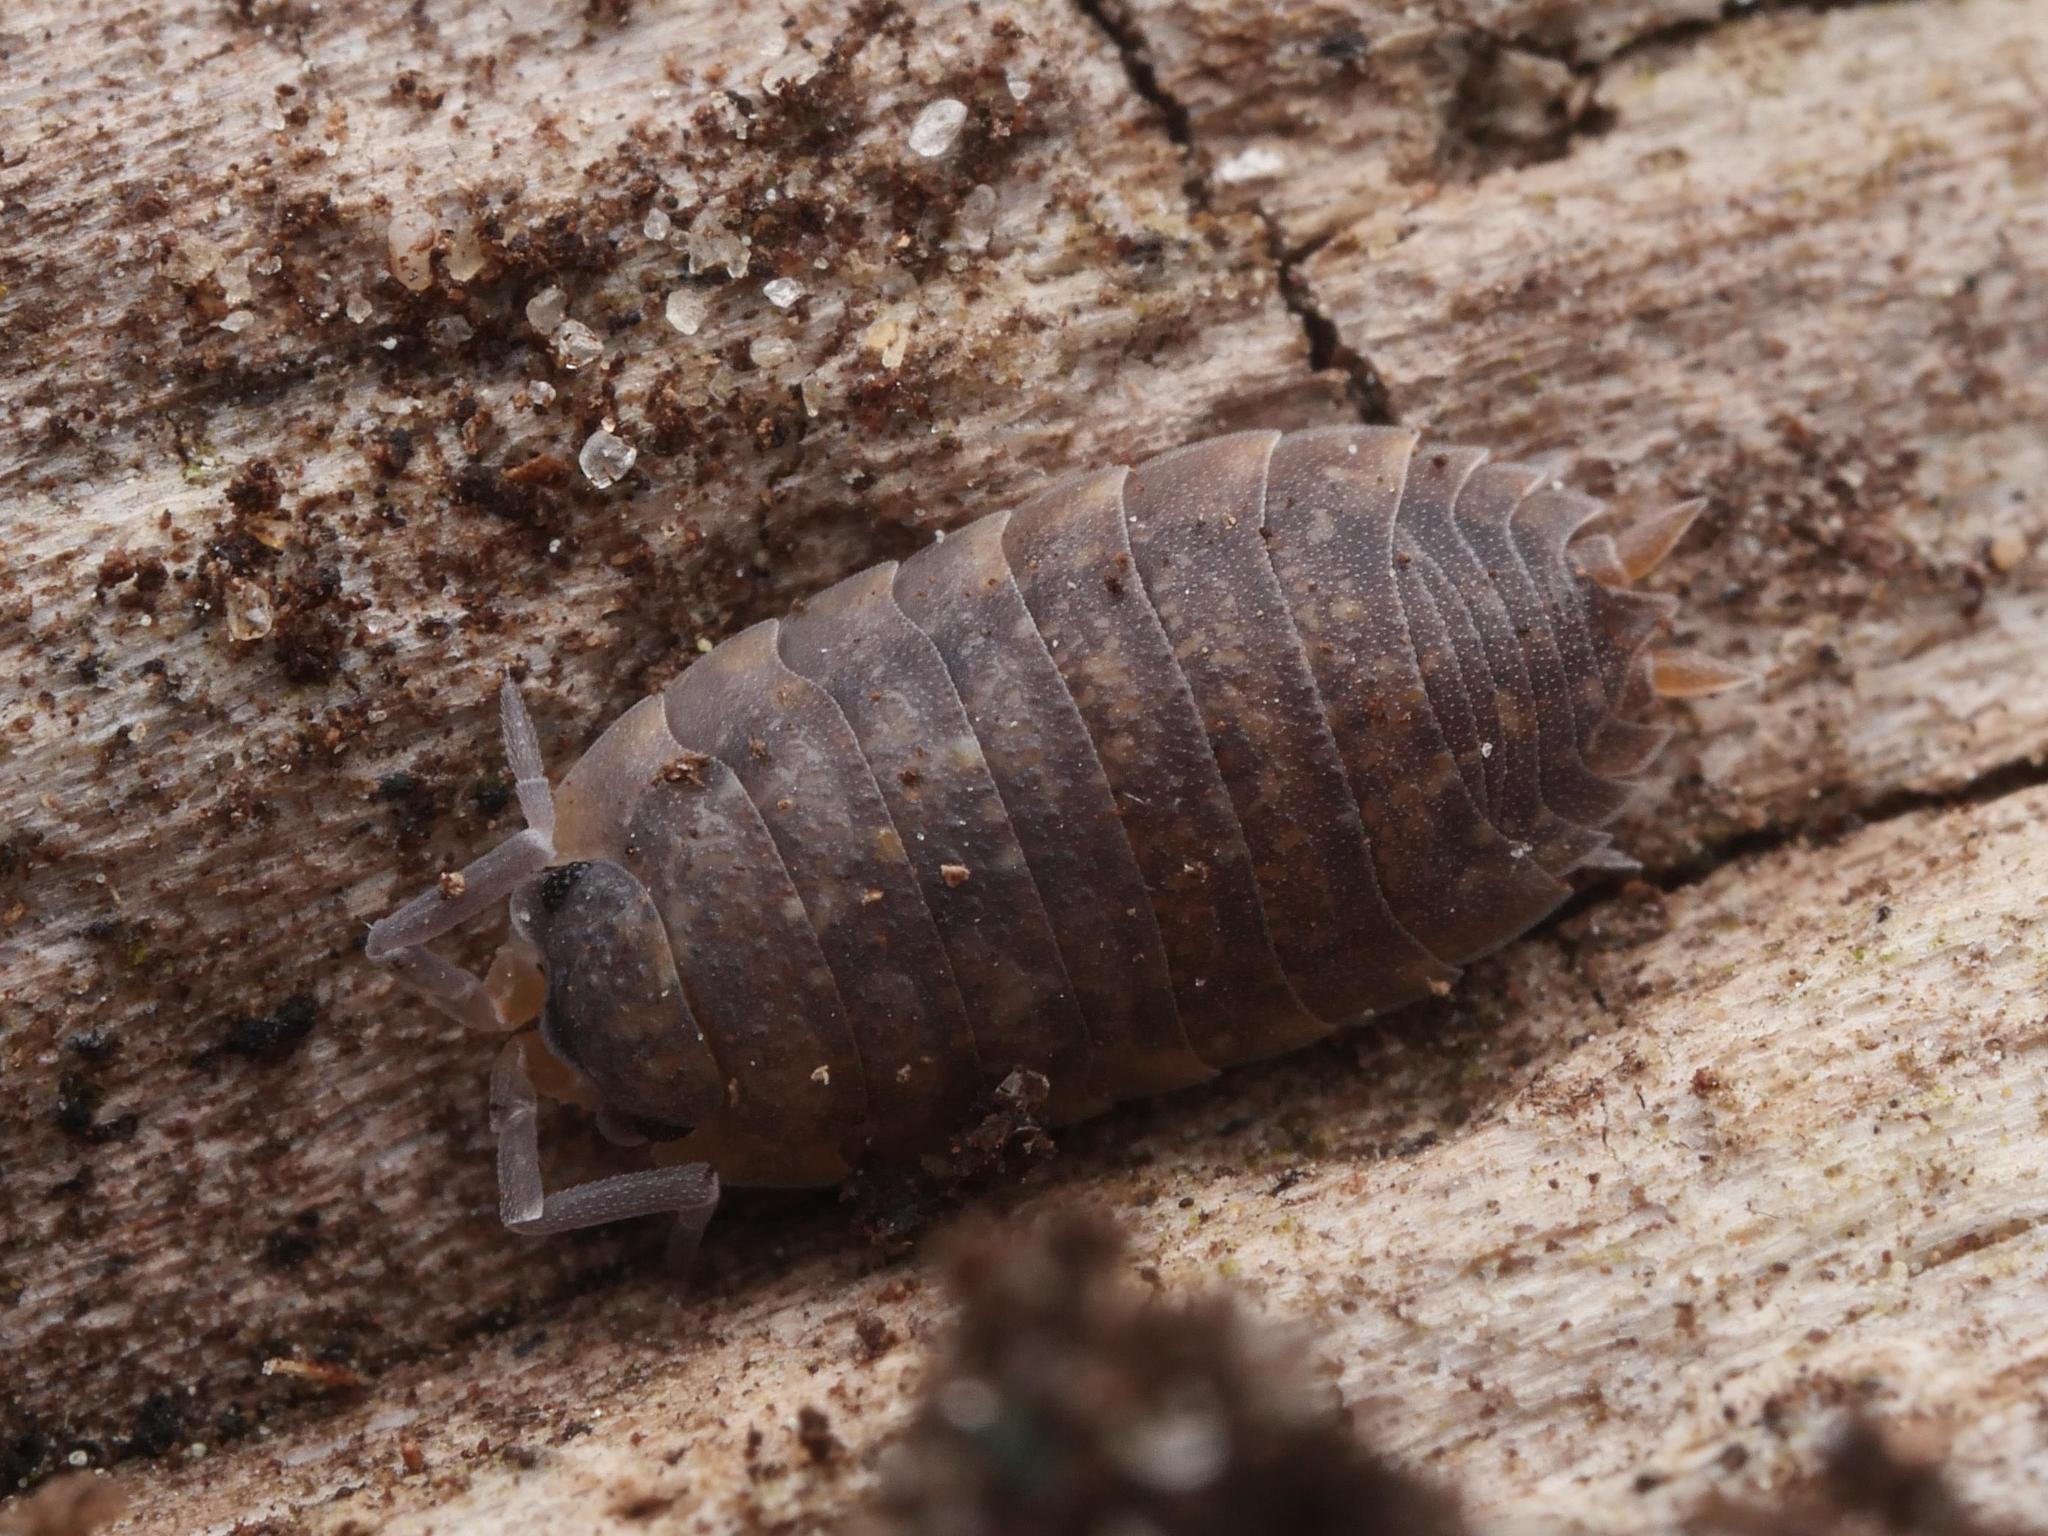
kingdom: Animalia
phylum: Arthropoda
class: Malacostraca
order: Isopoda
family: Porcellionidae
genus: Porcellio
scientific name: Porcellio scaber
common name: Common rough woodlouse
